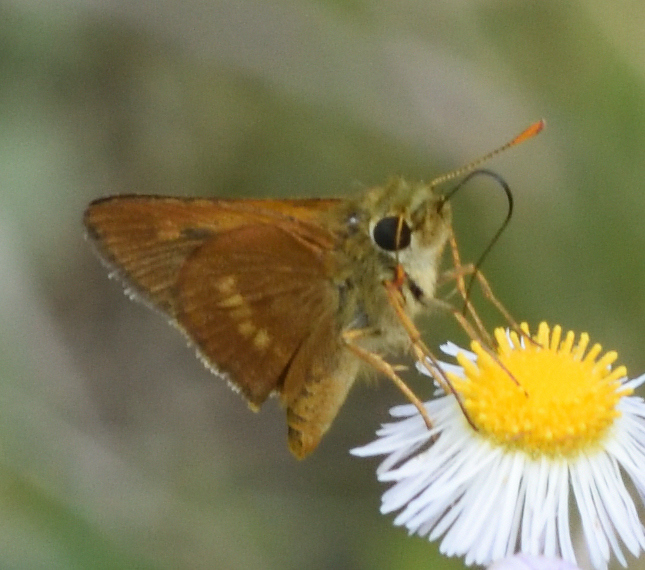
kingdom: Animalia
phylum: Arthropoda
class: Insecta
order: Lepidoptera
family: Hesperiidae
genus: Polites
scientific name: Polites otho
